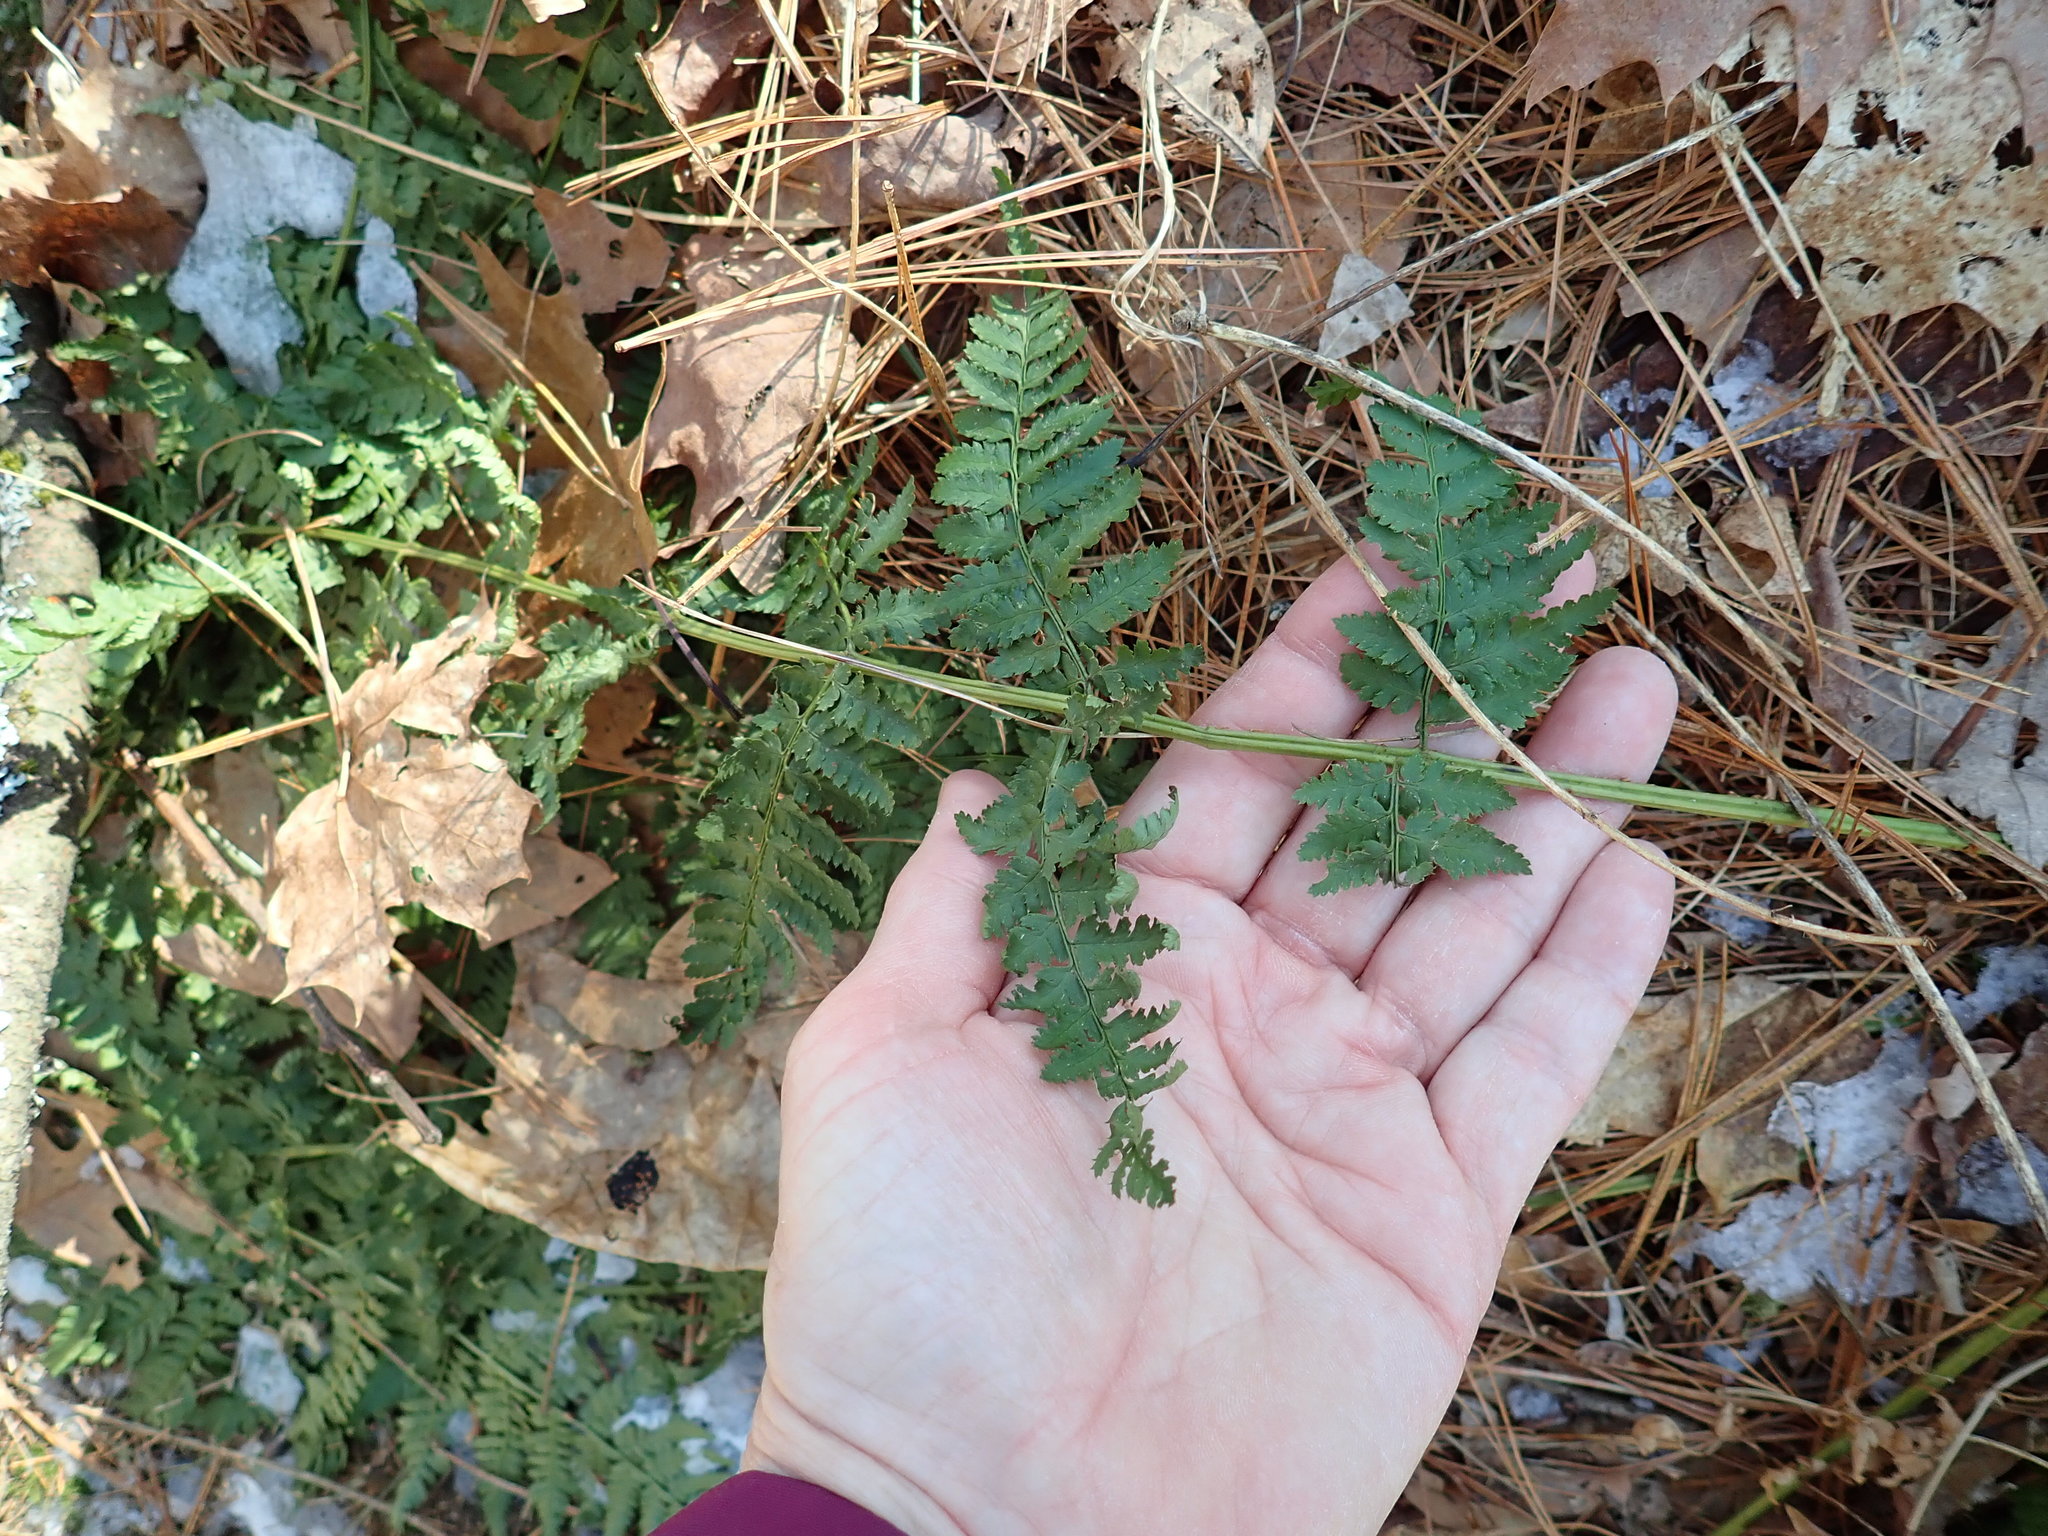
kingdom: Plantae
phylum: Tracheophyta
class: Polypodiopsida
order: Polypodiales
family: Dryopteridaceae
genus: Dryopteris
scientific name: Dryopteris intermedia
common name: Evergreen wood fern
